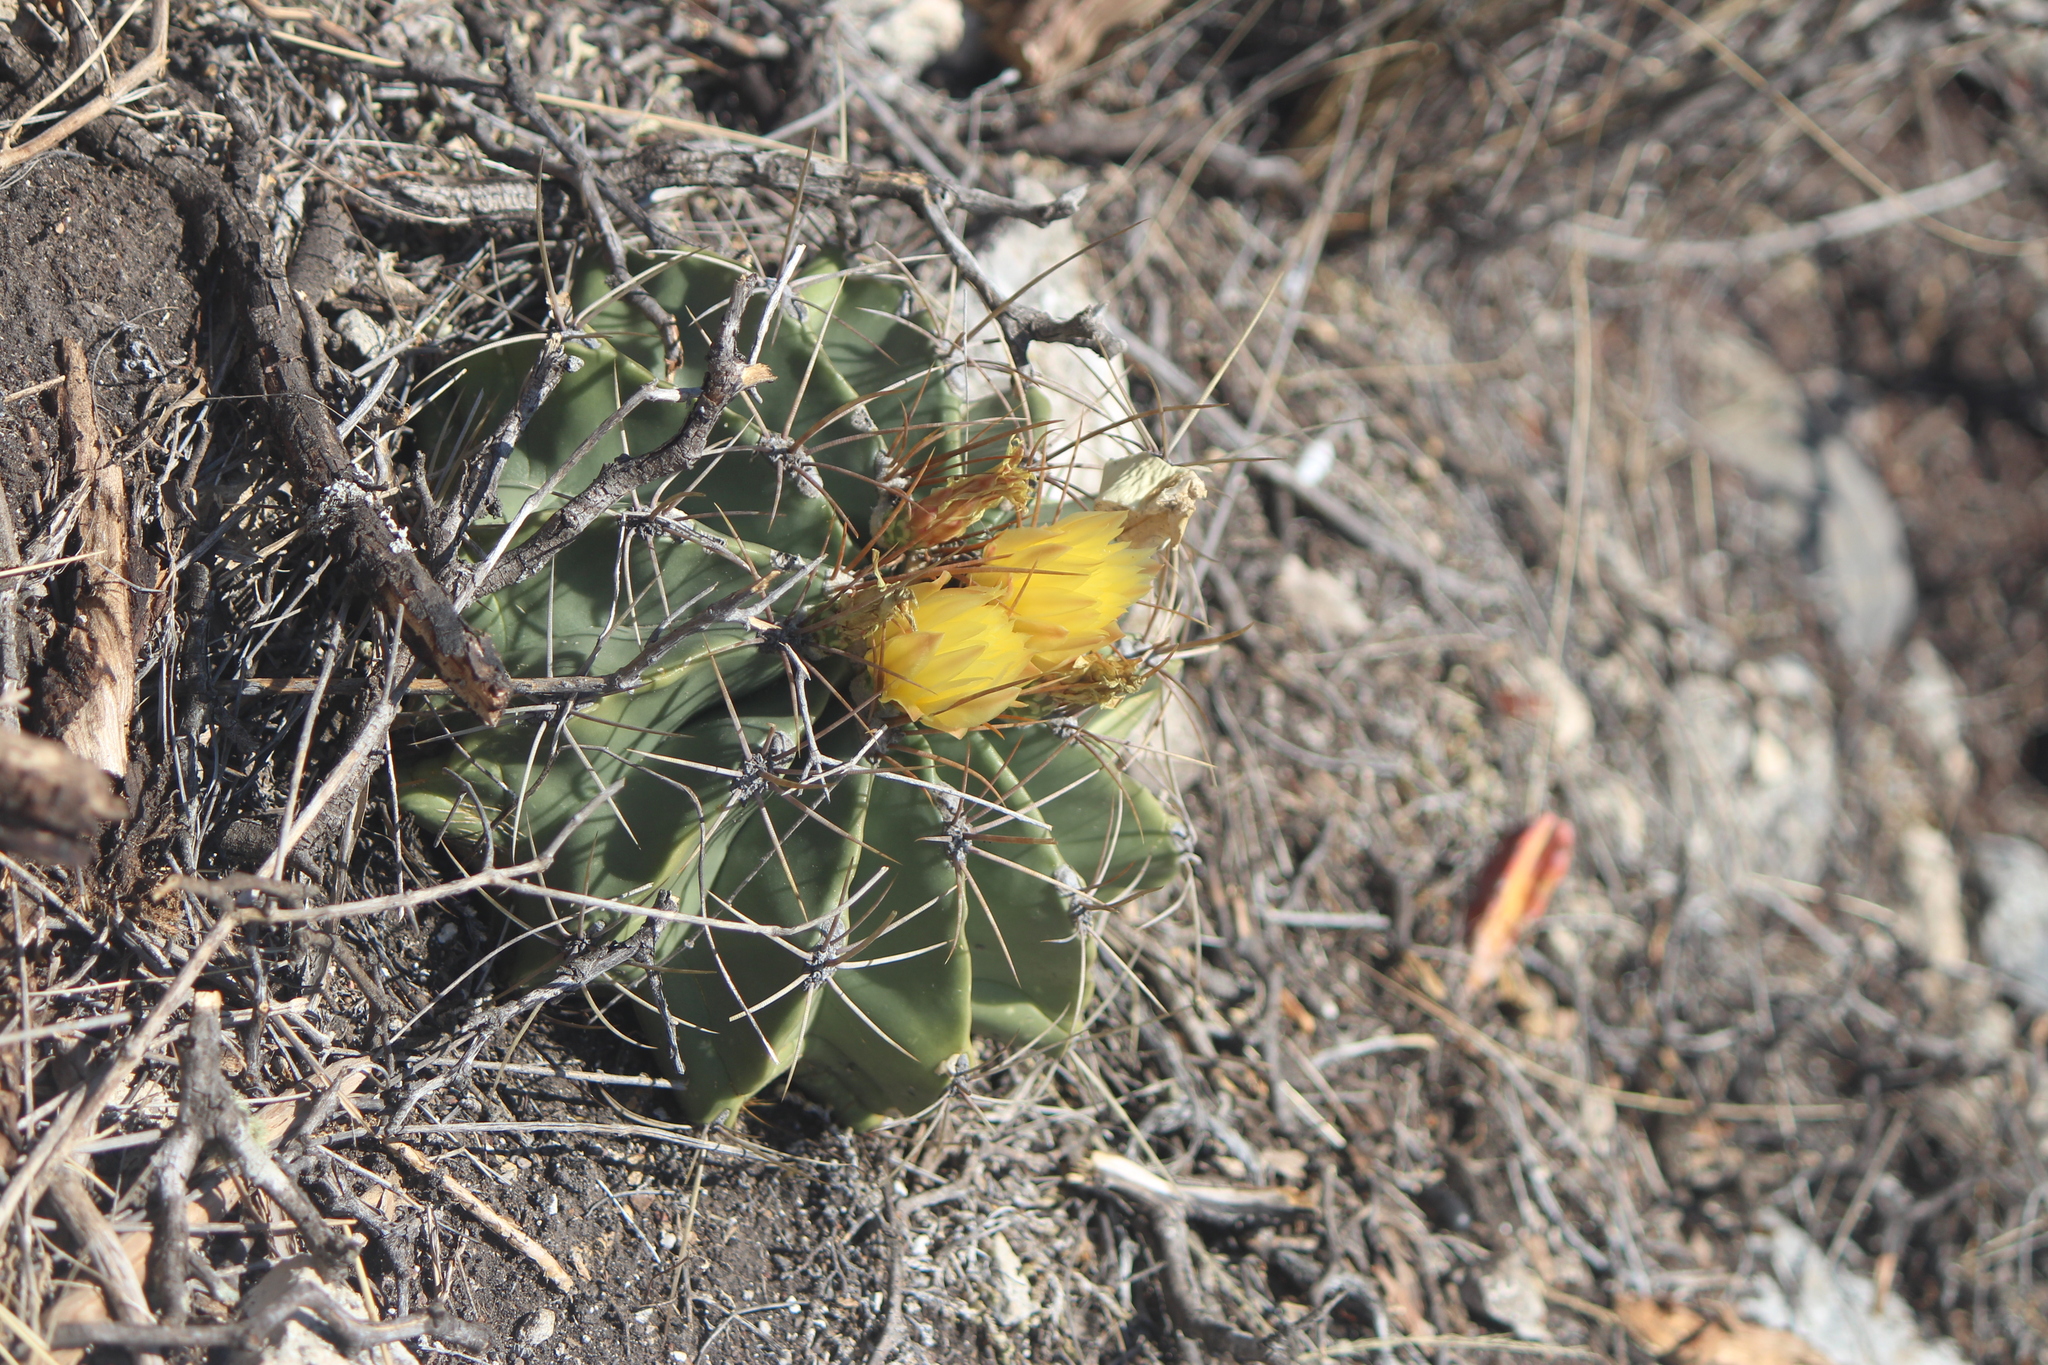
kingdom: Plantae
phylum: Tracheophyta
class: Magnoliopsida
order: Caryophyllales
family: Cactaceae
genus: Parrycactus
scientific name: Parrycactus echidne
